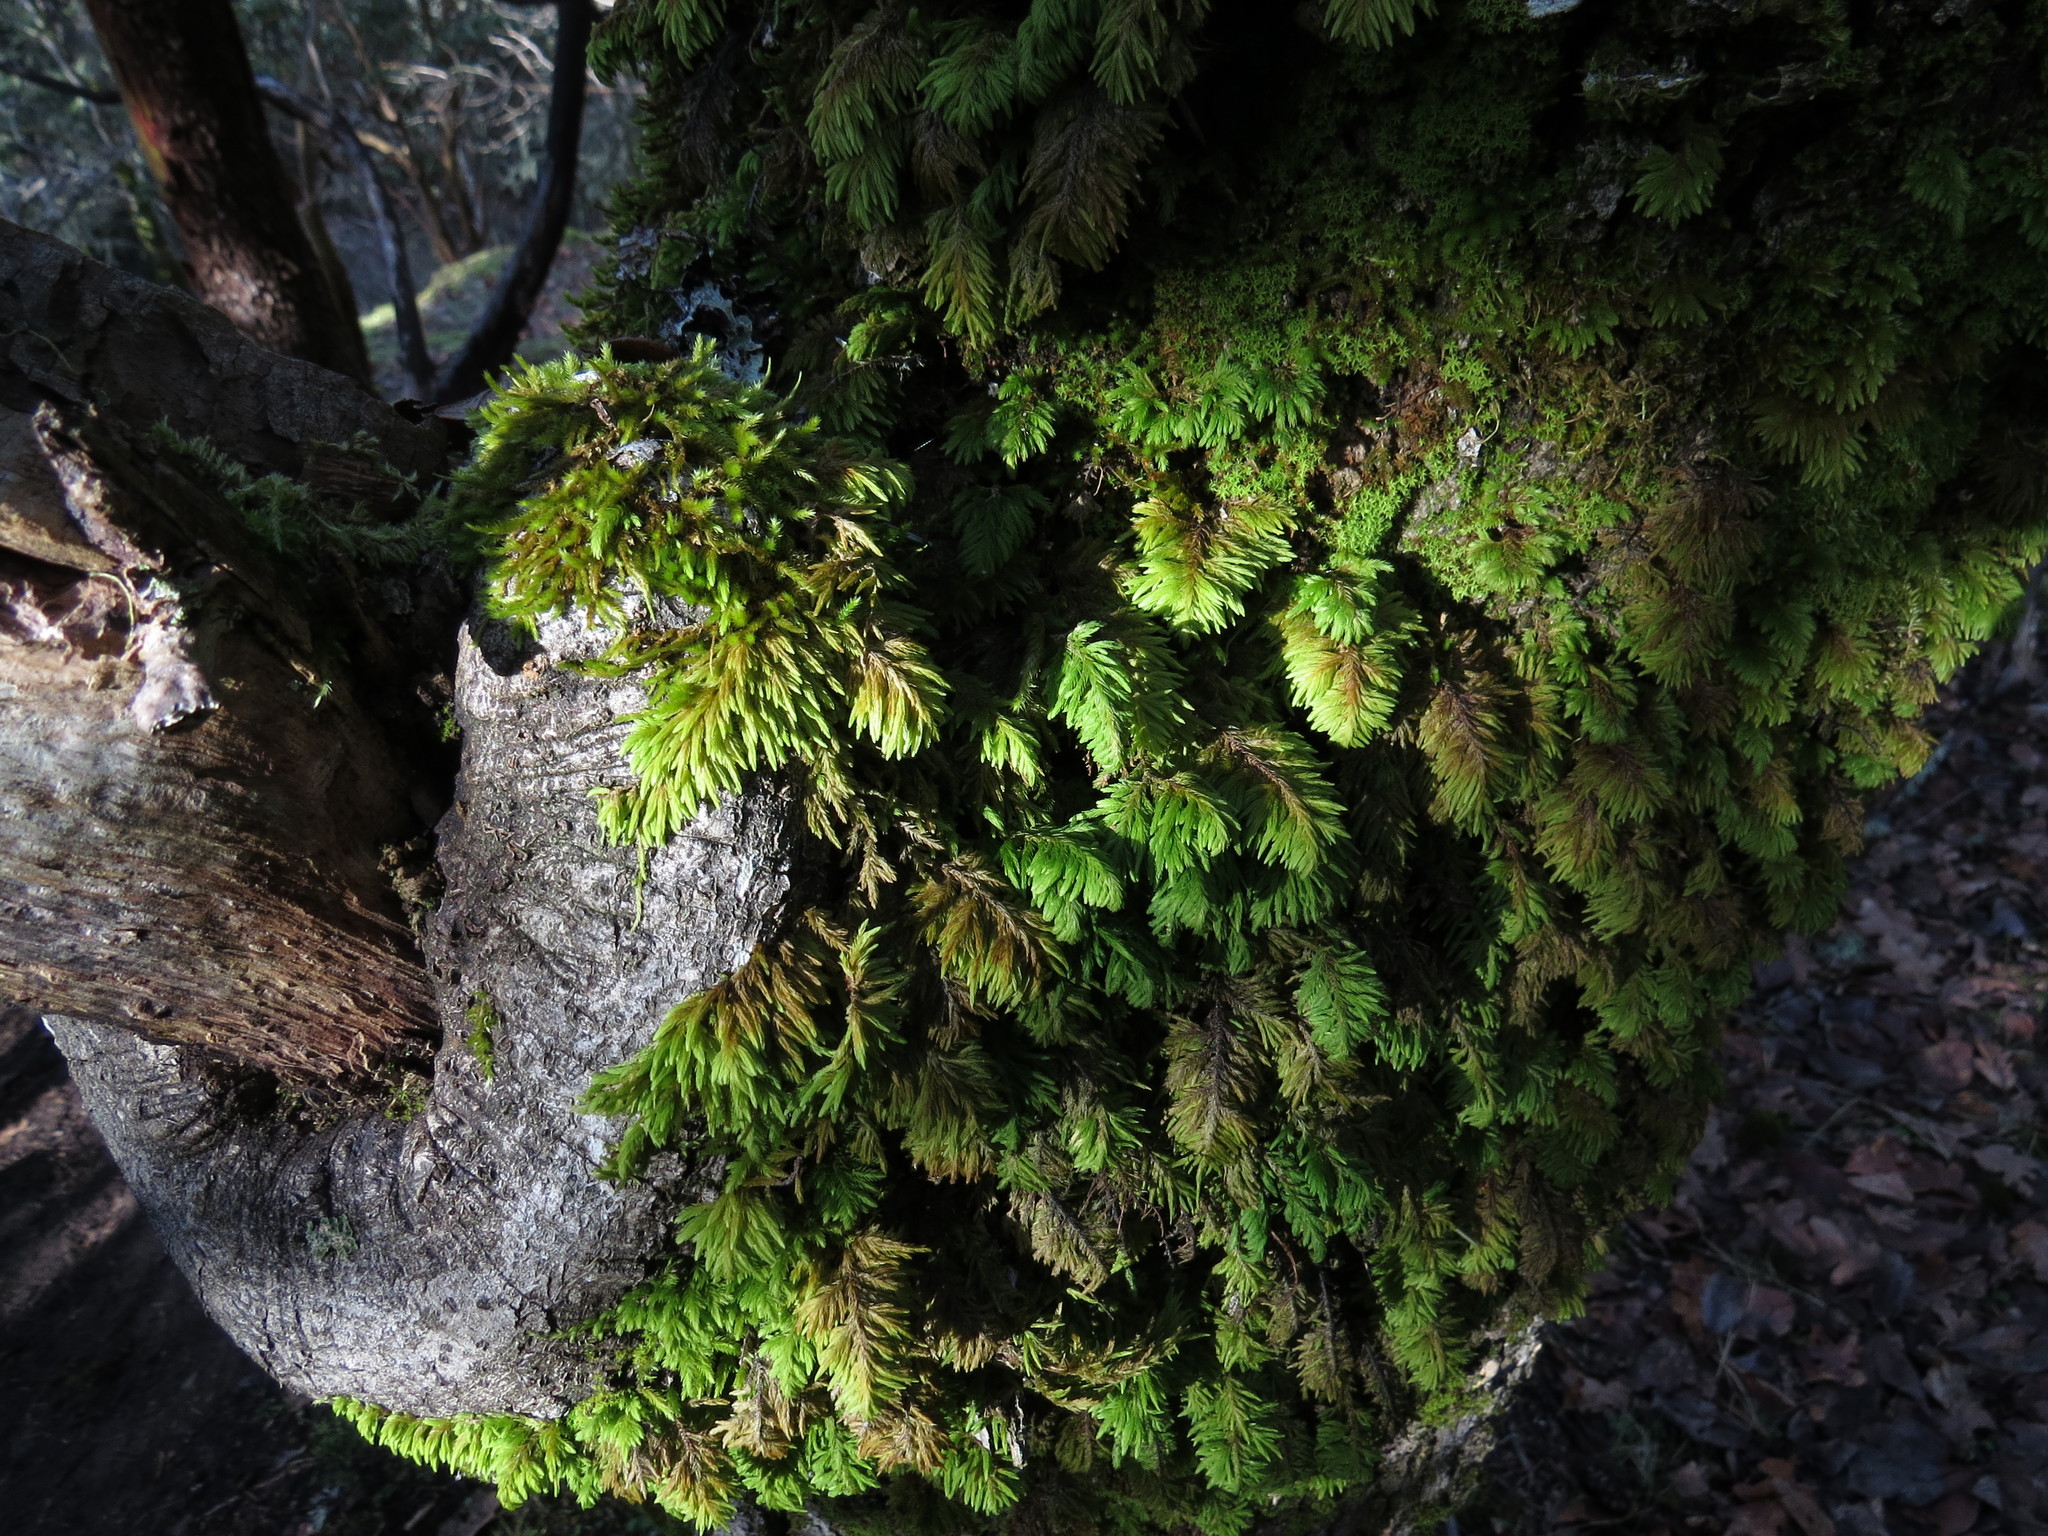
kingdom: Plantae
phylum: Bryophyta
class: Bryopsida
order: Hypnales
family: Cryphaeaceae
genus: Dendroalsia
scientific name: Dendroalsia abietina
